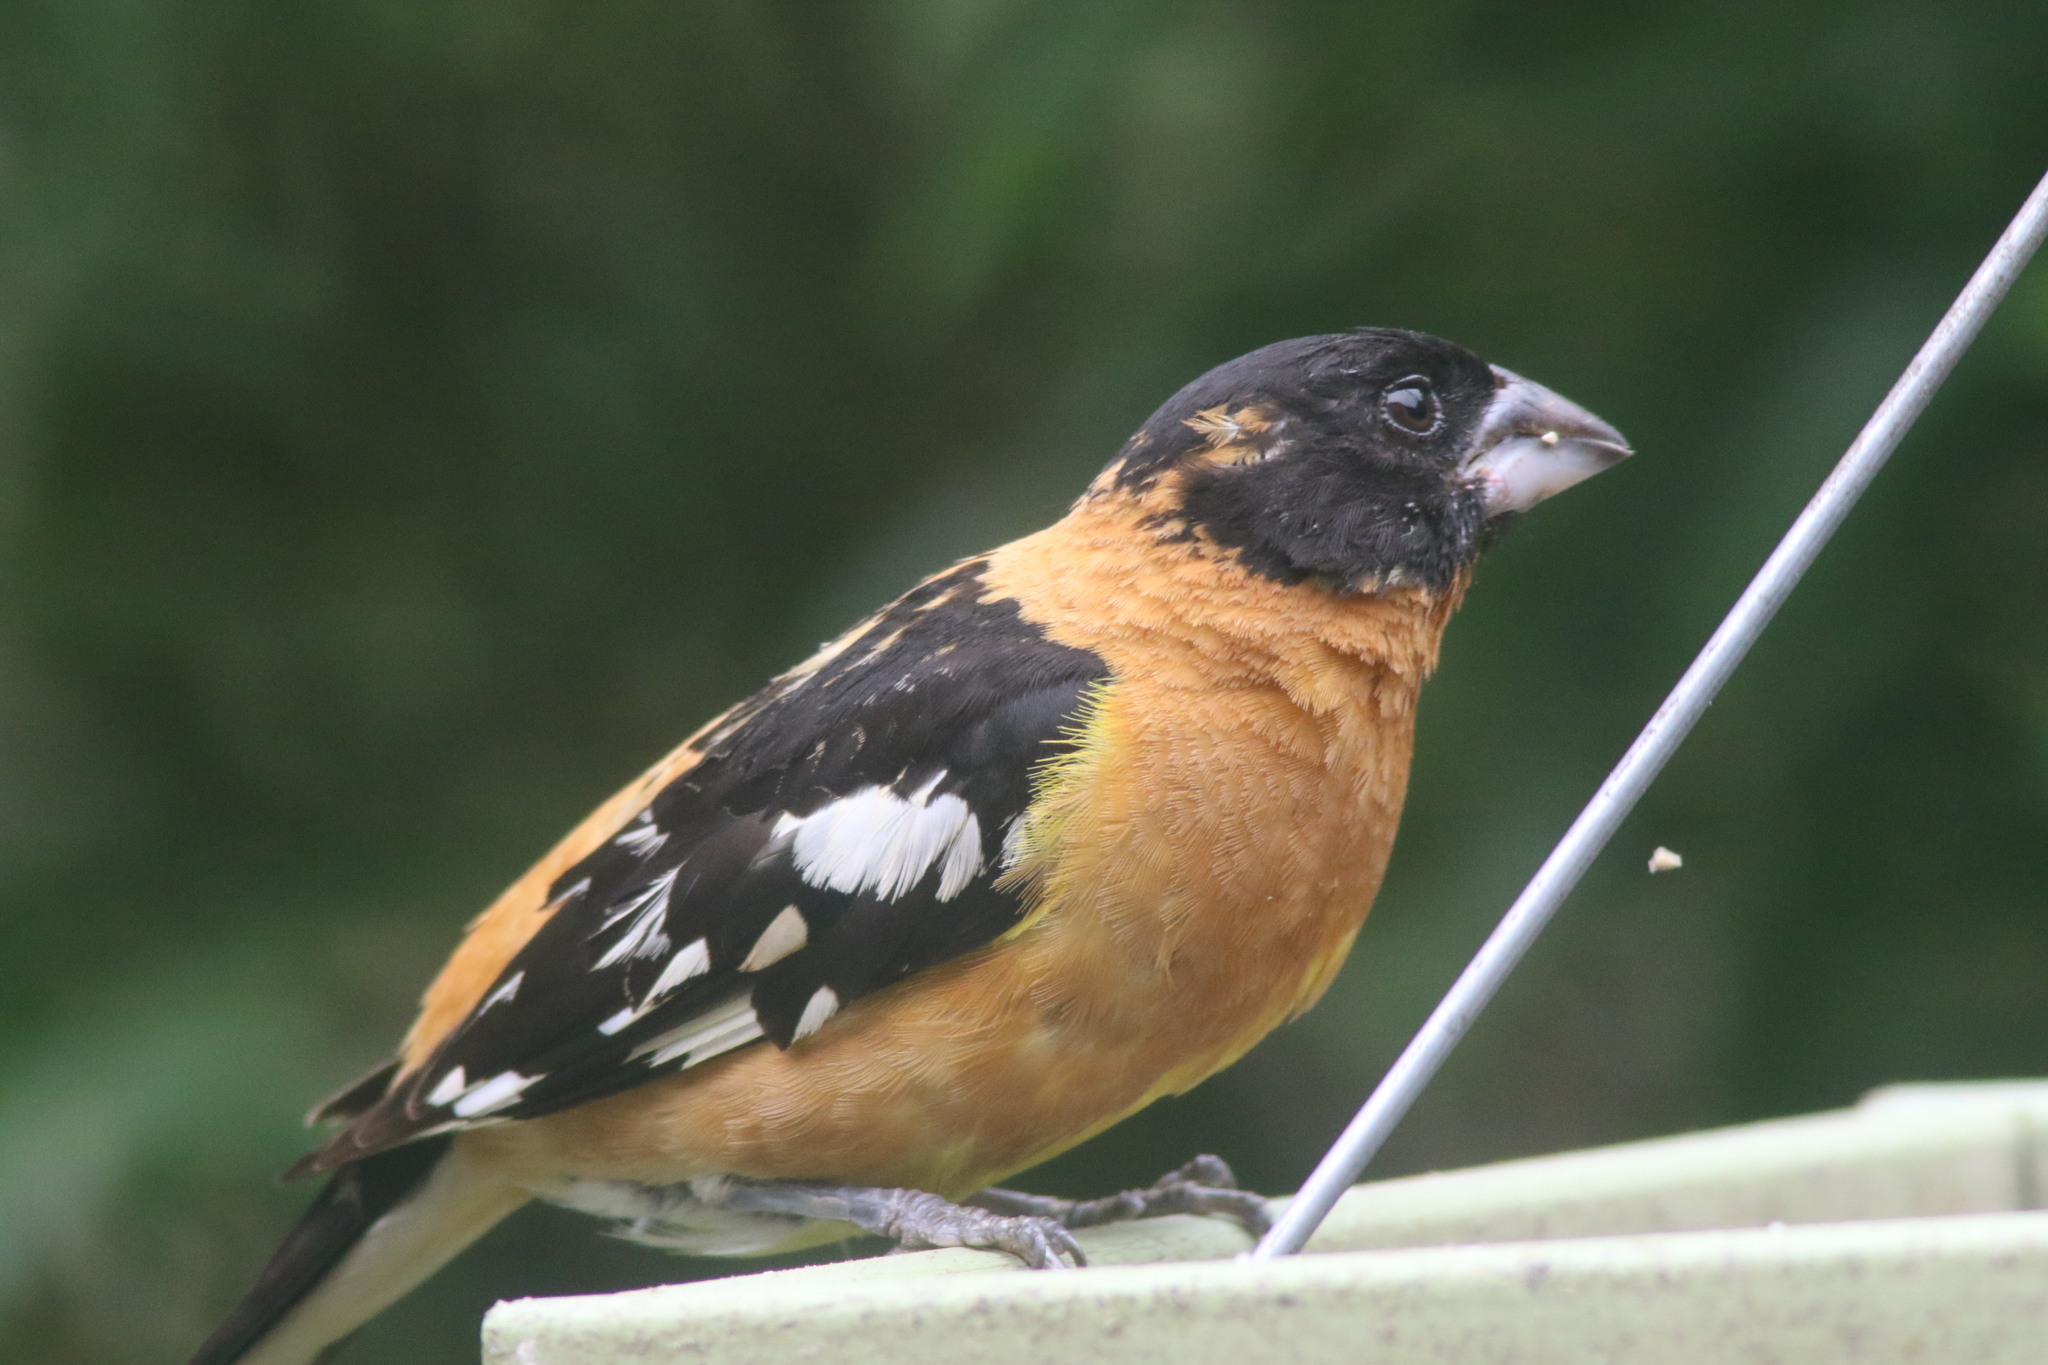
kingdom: Animalia
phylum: Chordata
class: Aves
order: Passeriformes
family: Cardinalidae
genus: Pheucticus
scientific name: Pheucticus melanocephalus
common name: Black-headed grosbeak
